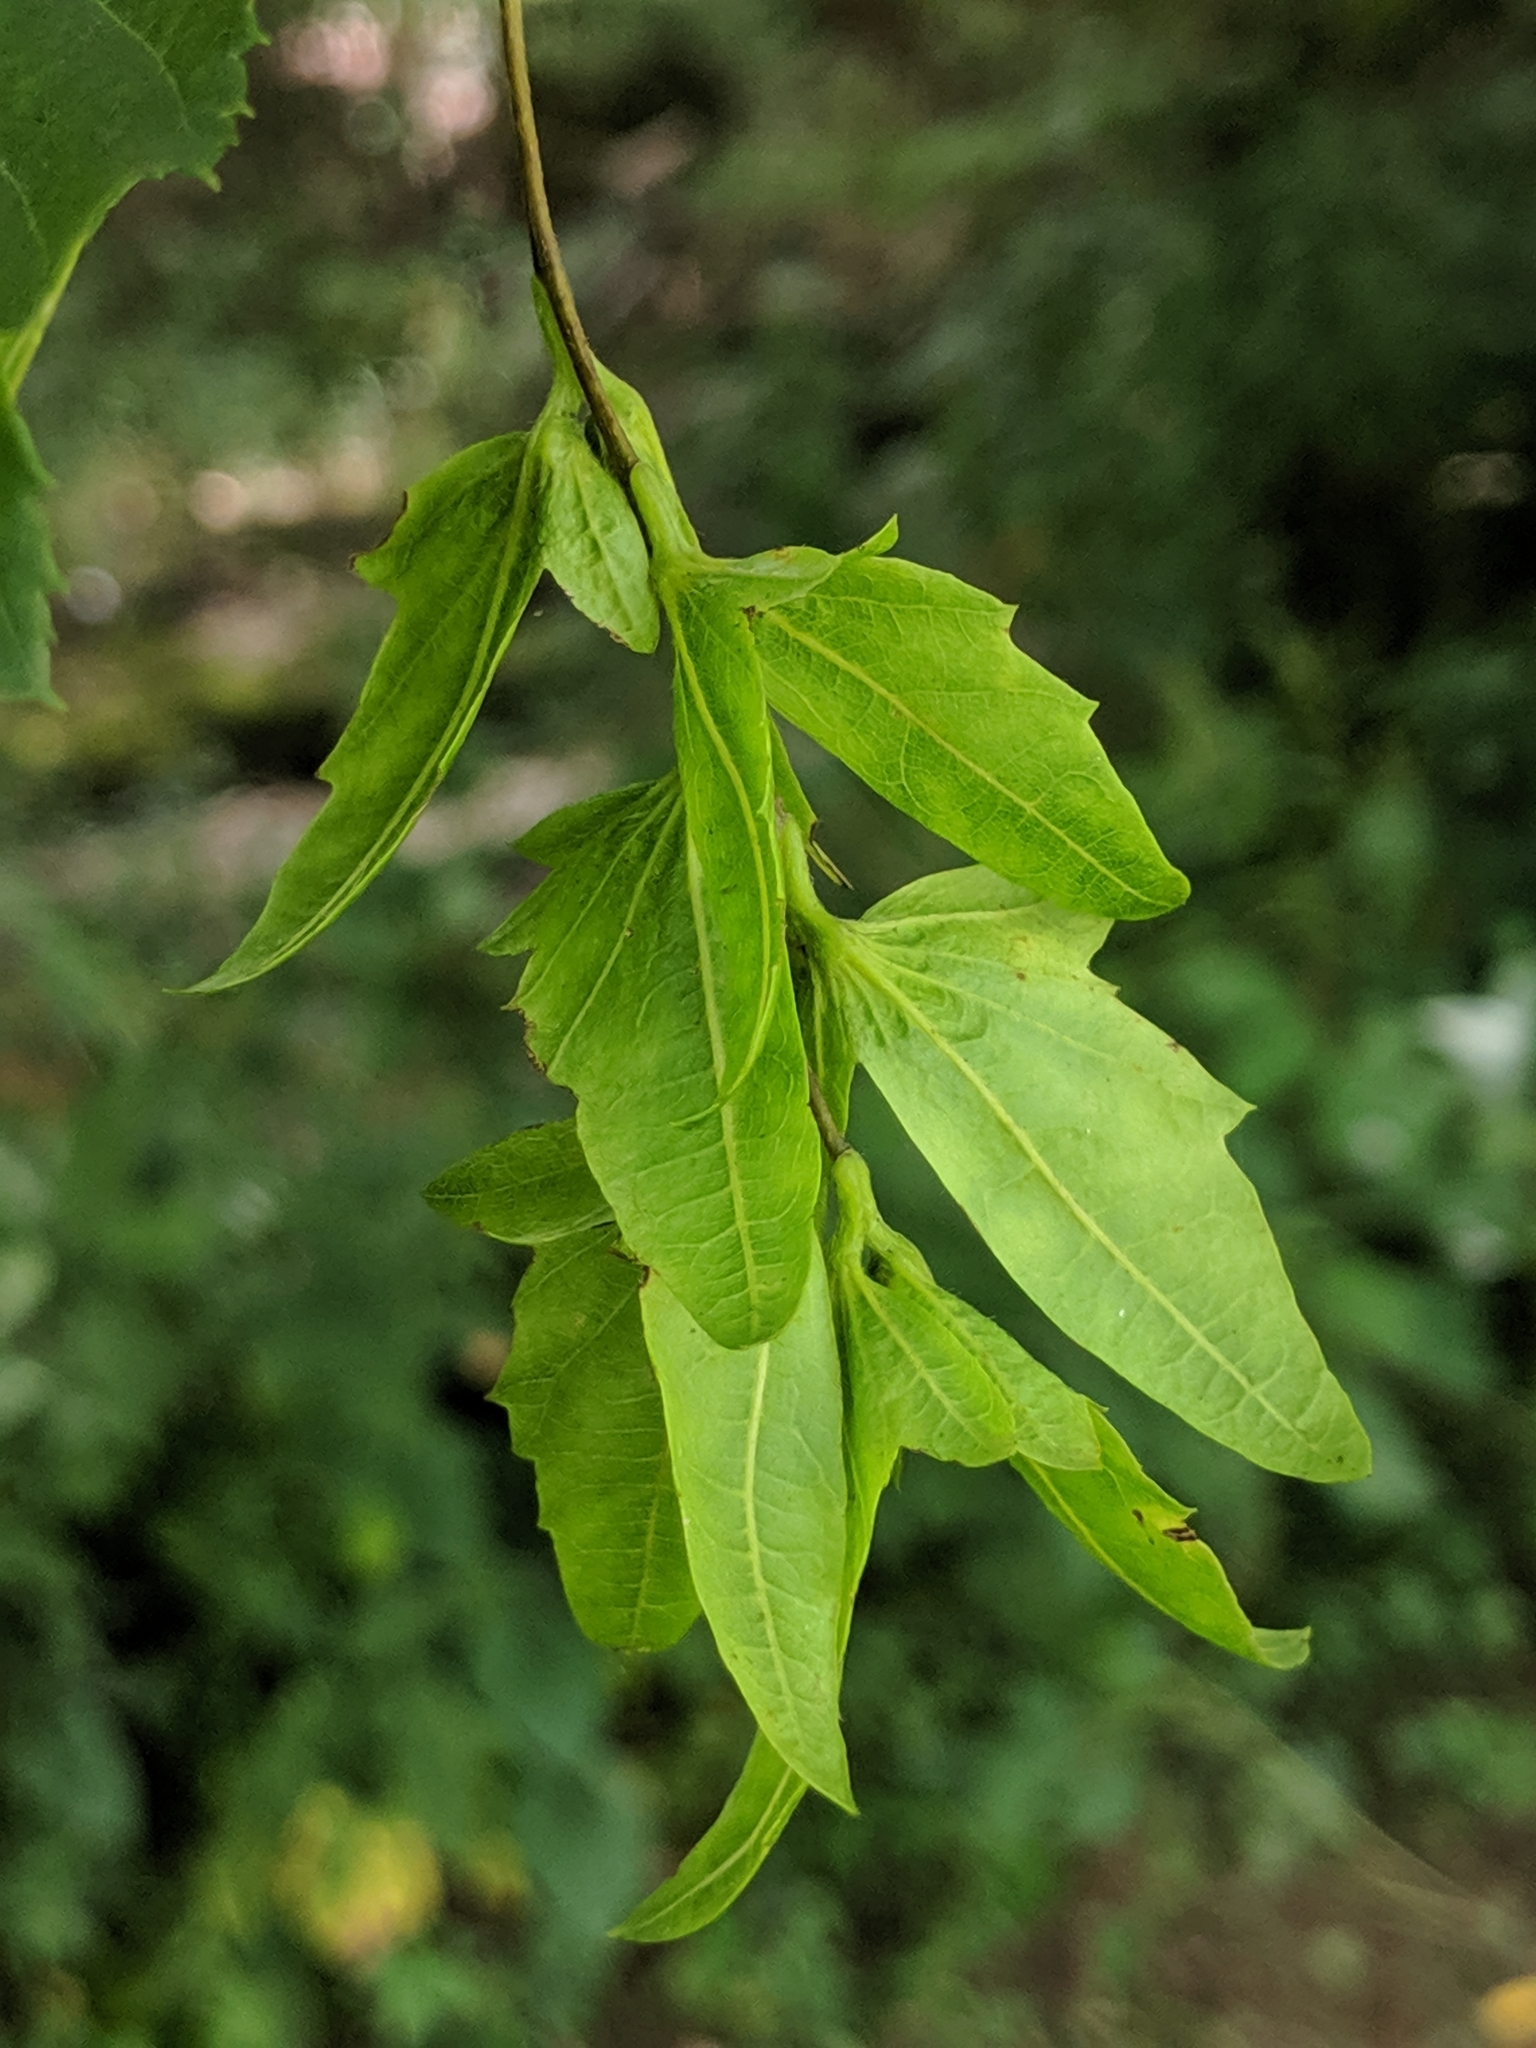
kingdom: Plantae
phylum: Tracheophyta
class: Magnoliopsida
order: Fagales
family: Betulaceae
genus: Carpinus
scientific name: Carpinus caroliniana
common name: American hornbeam
